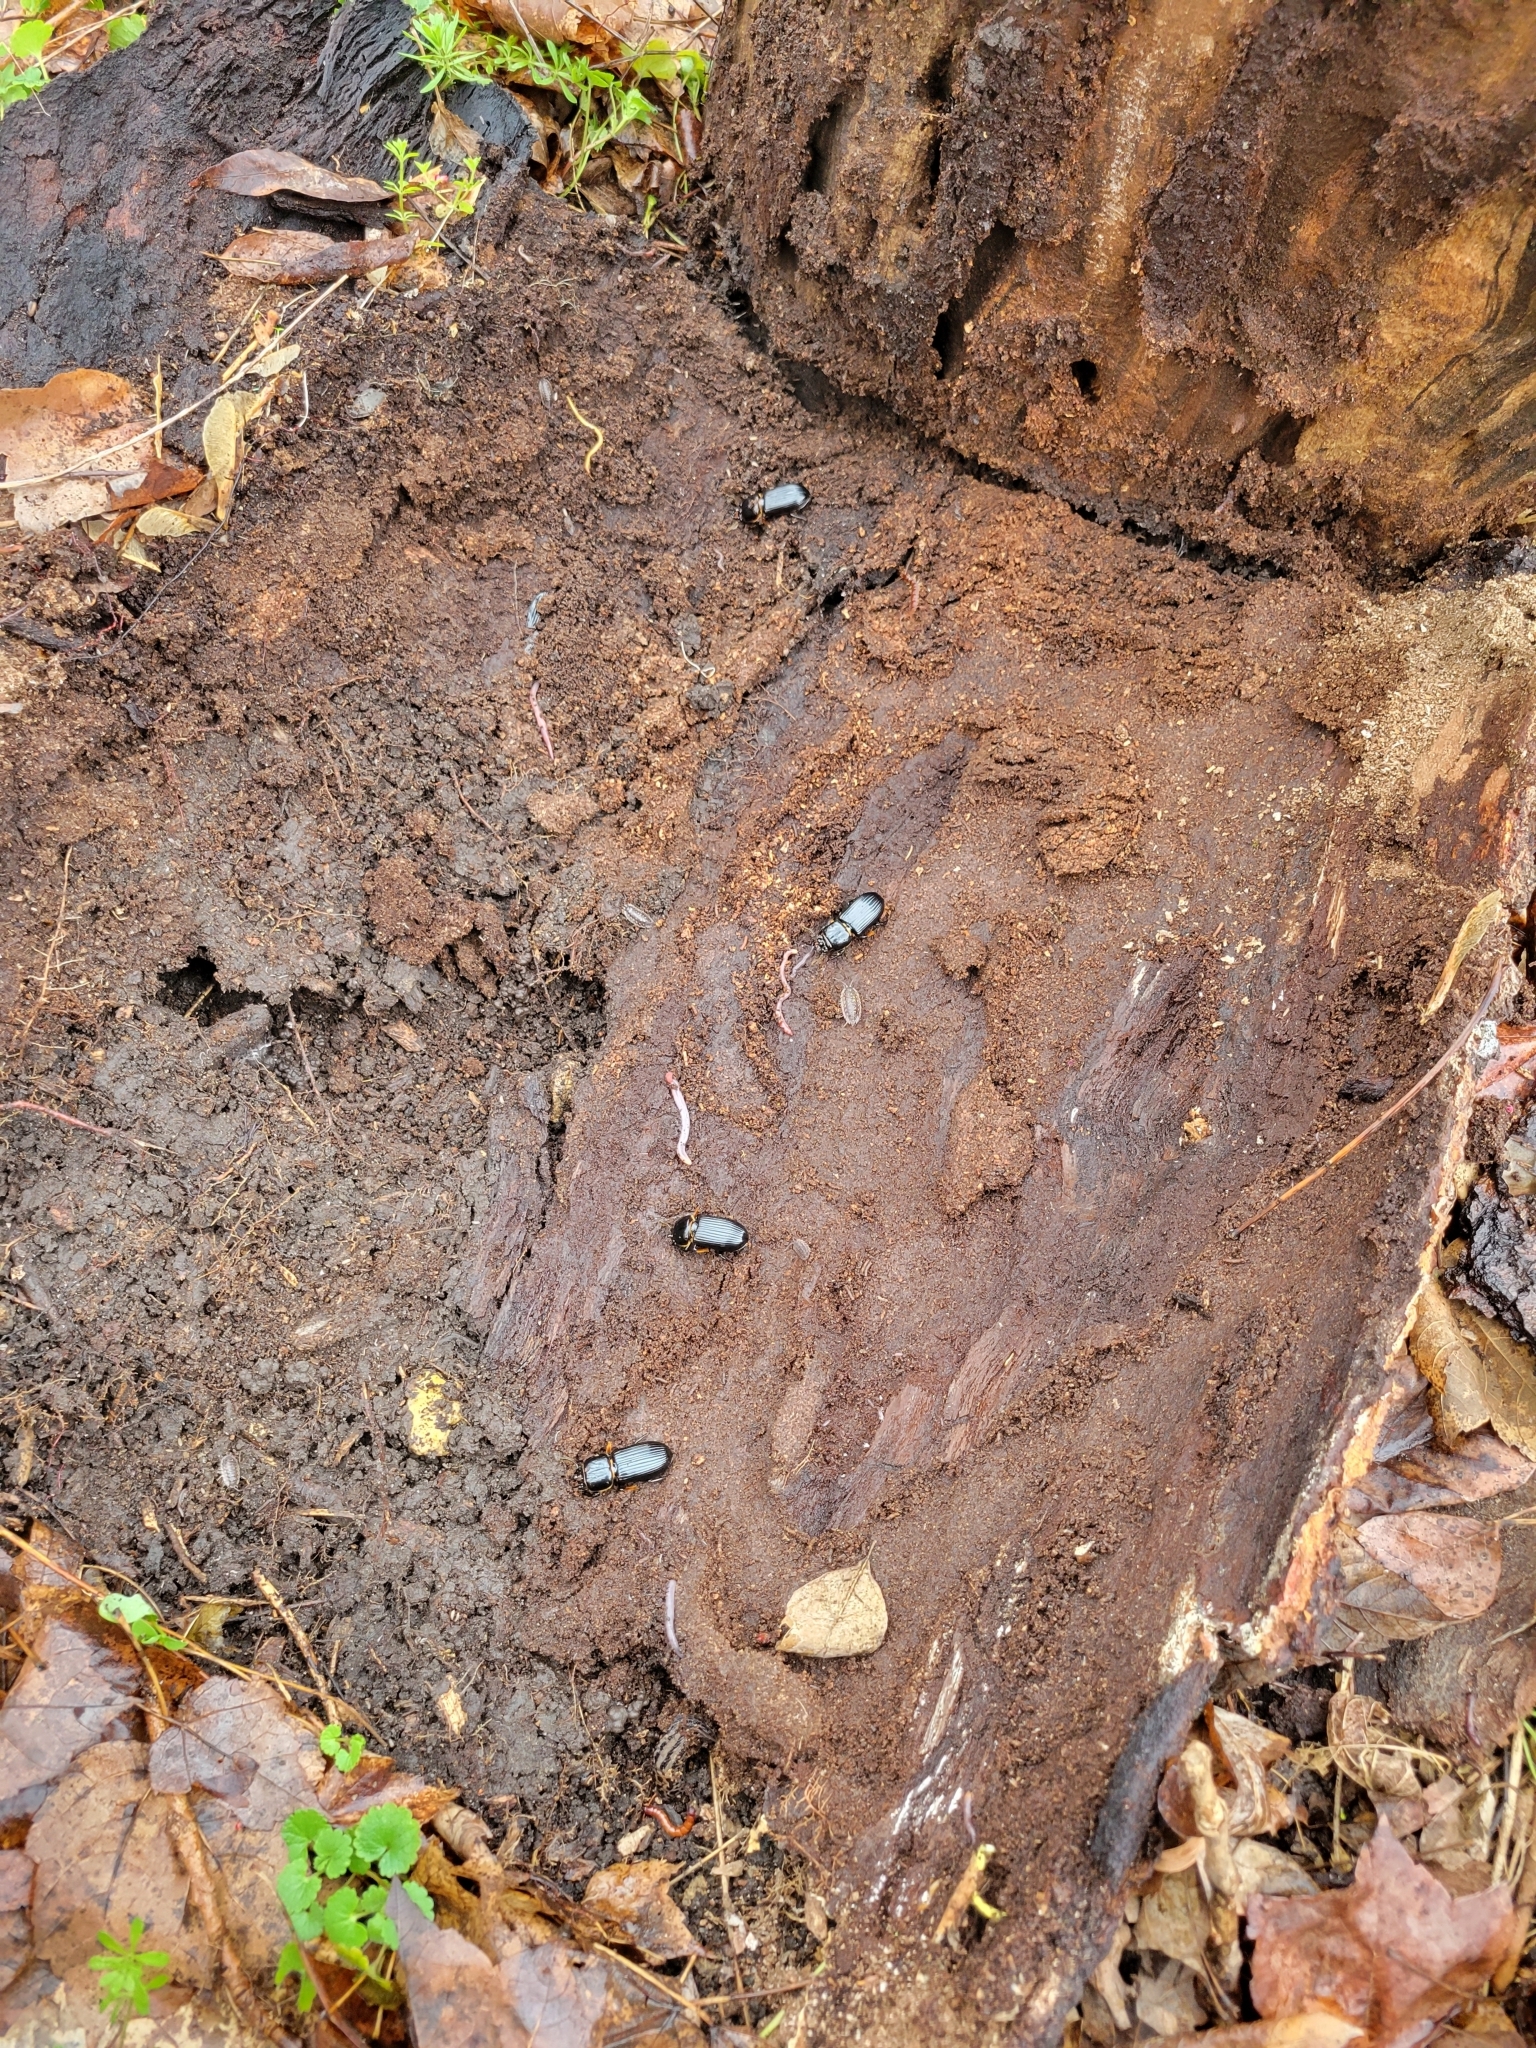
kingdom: Animalia
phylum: Arthropoda
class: Insecta
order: Coleoptera
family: Passalidae
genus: Odontotaenius
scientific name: Odontotaenius disjunctus
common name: Patent leather beetle
